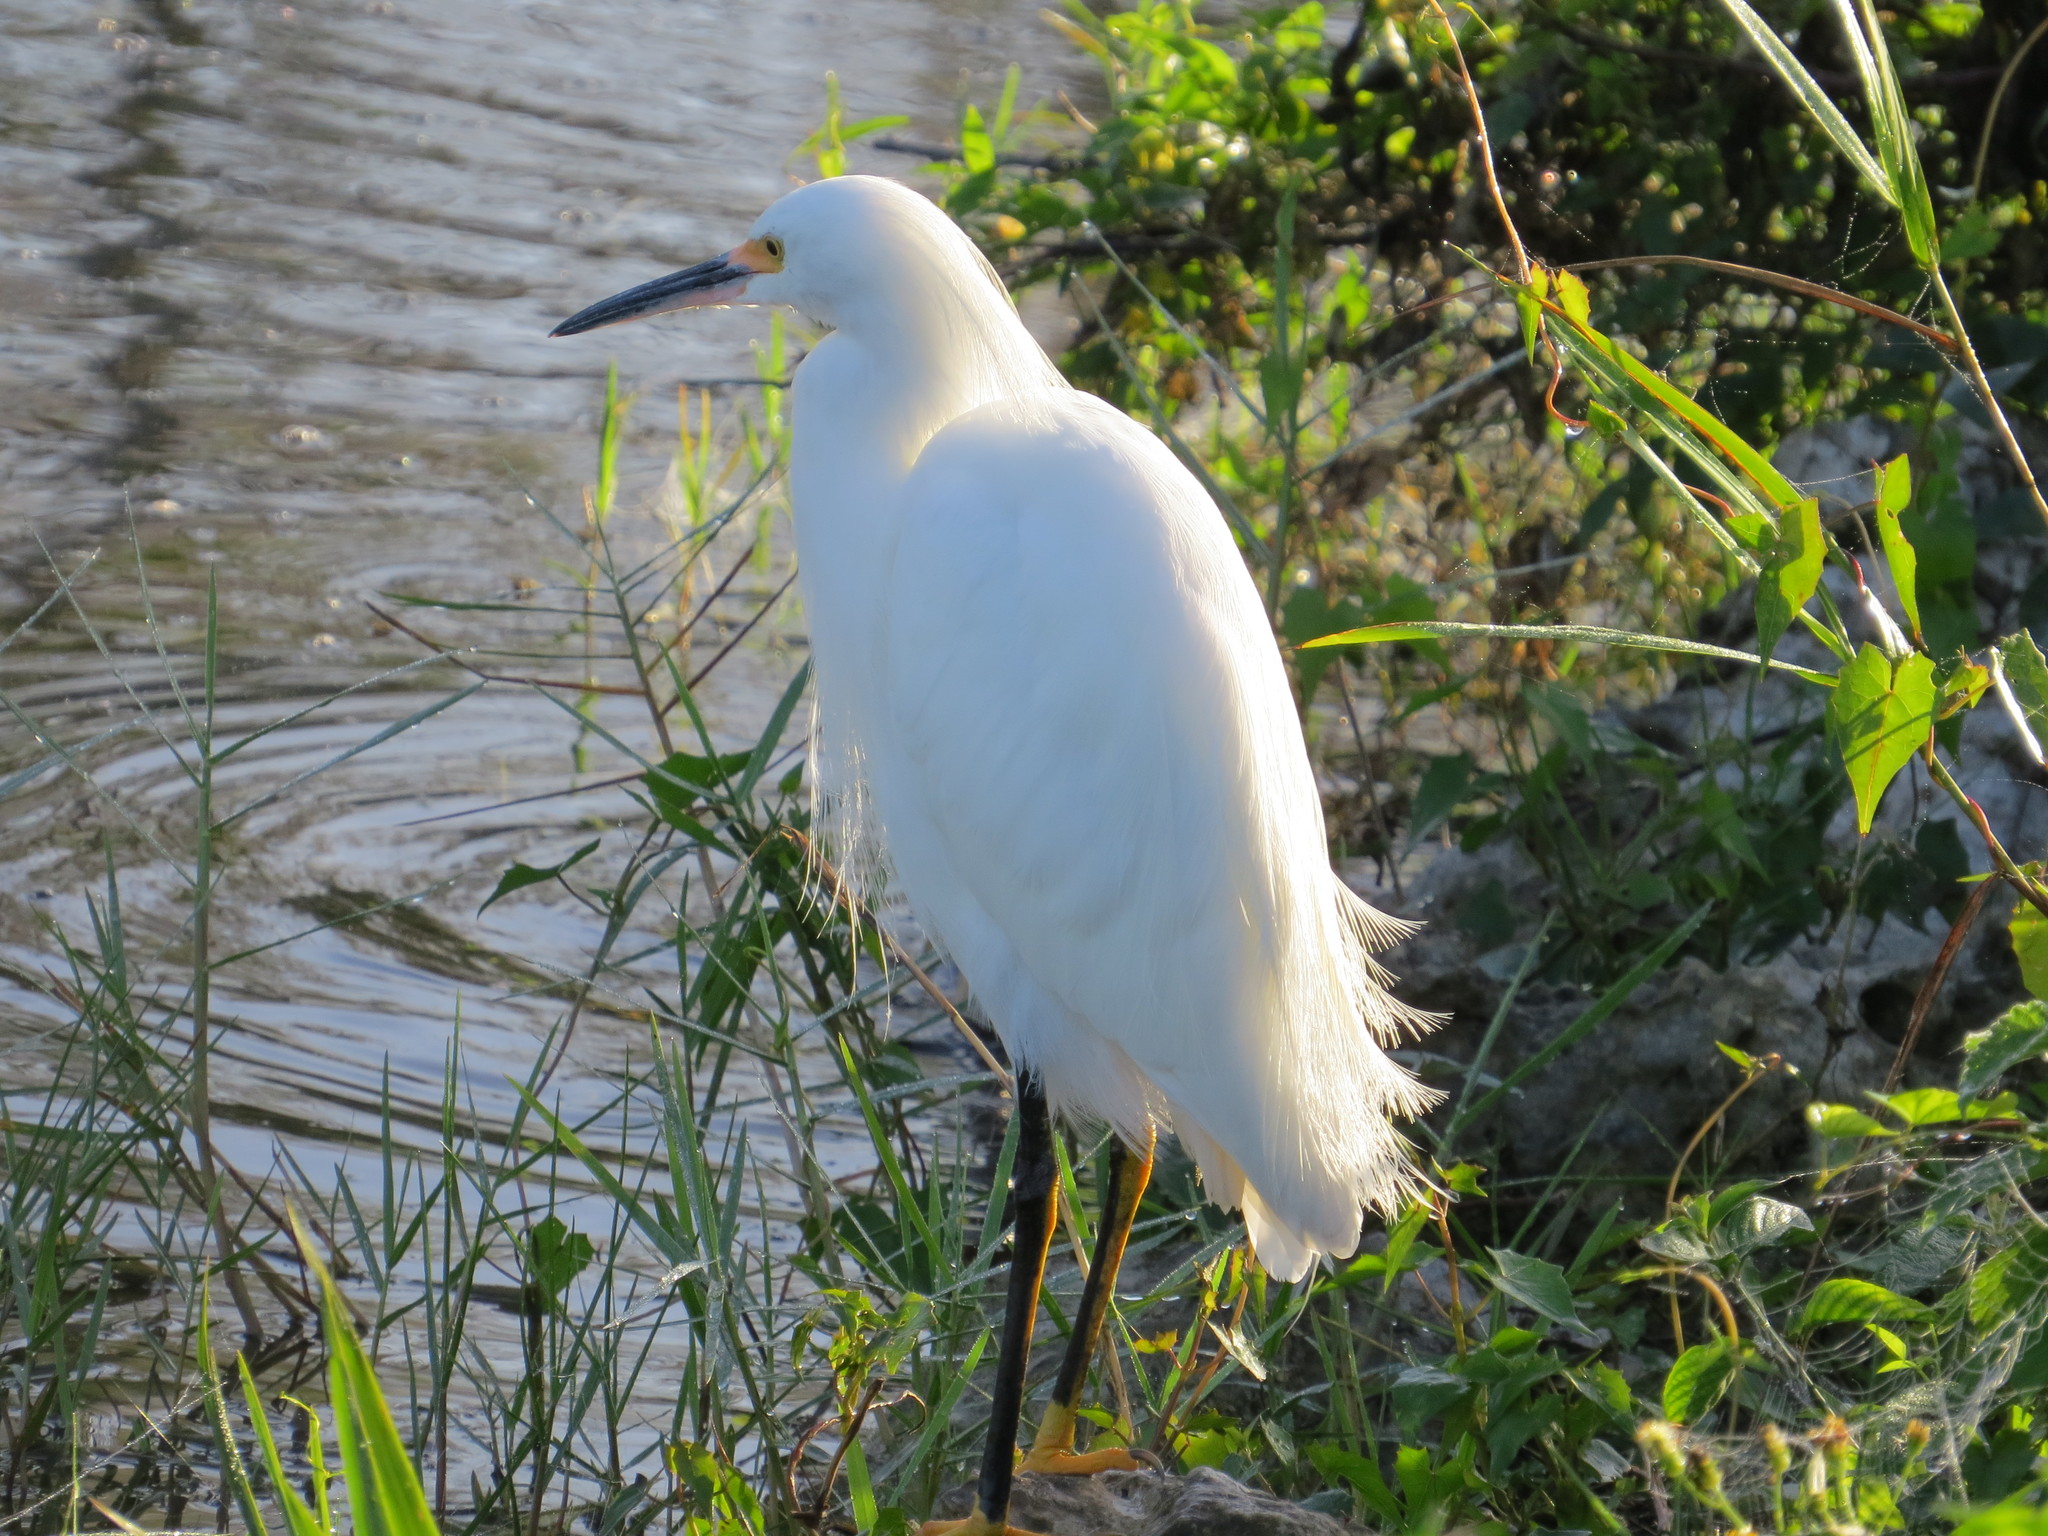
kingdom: Animalia
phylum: Chordata
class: Aves
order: Pelecaniformes
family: Ardeidae
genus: Egretta
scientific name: Egretta thula
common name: Snowy egret
